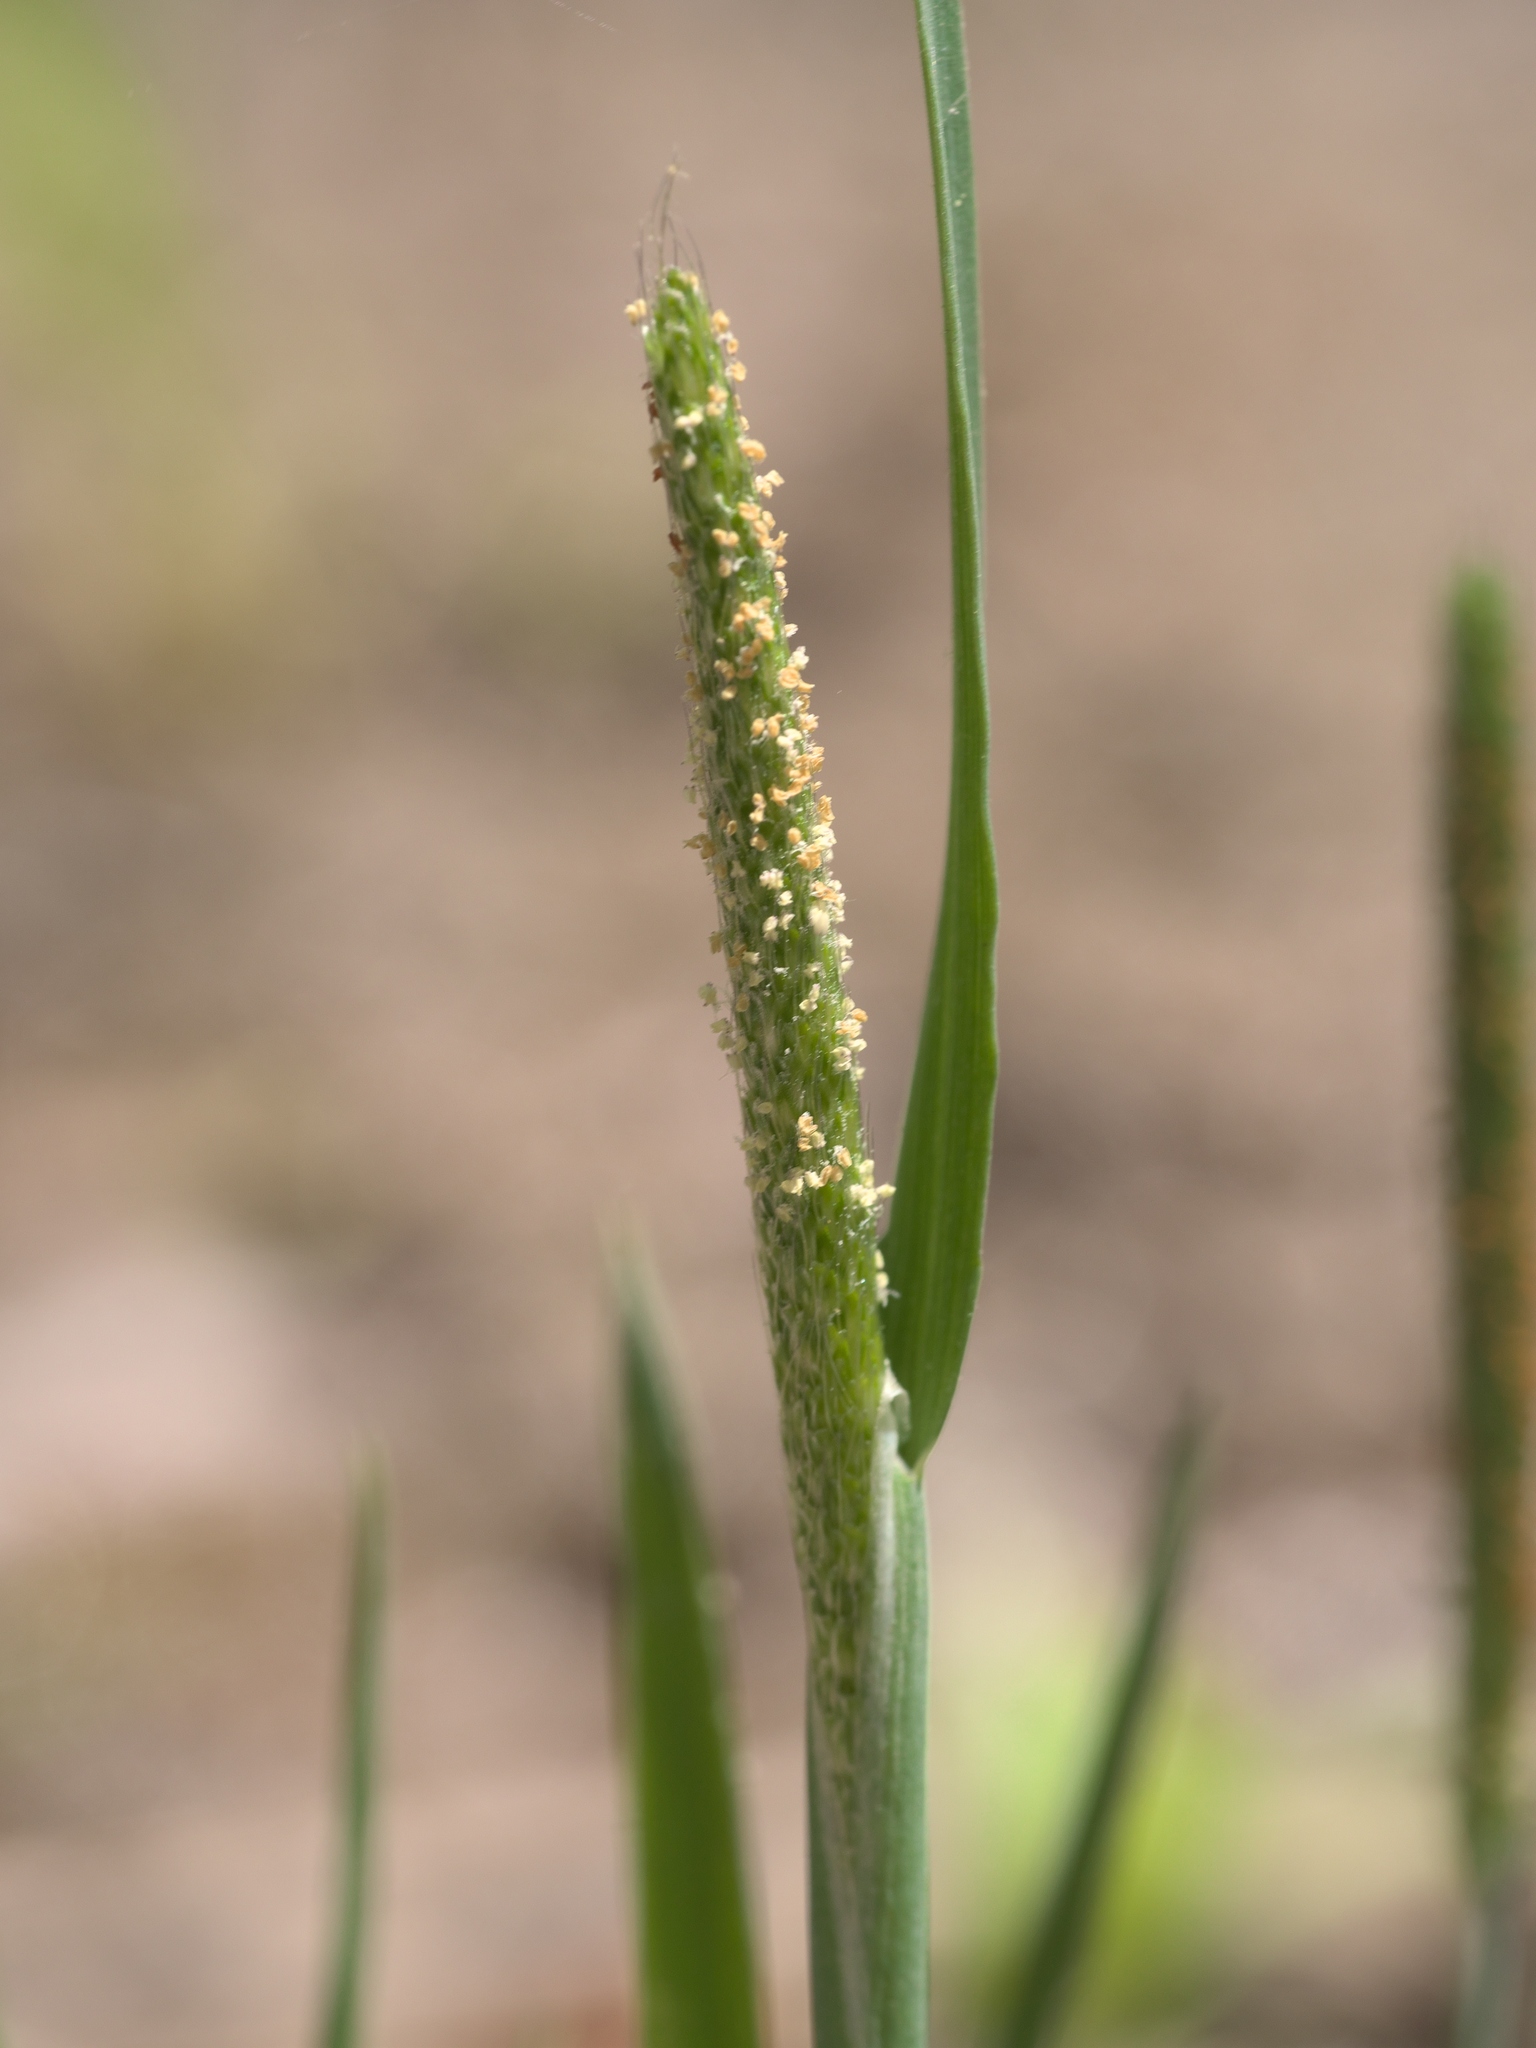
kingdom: Plantae
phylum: Tracheophyta
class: Liliopsida
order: Poales
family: Poaceae
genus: Alopecurus
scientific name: Alopecurus carolinianus
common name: Tufted foxtail
